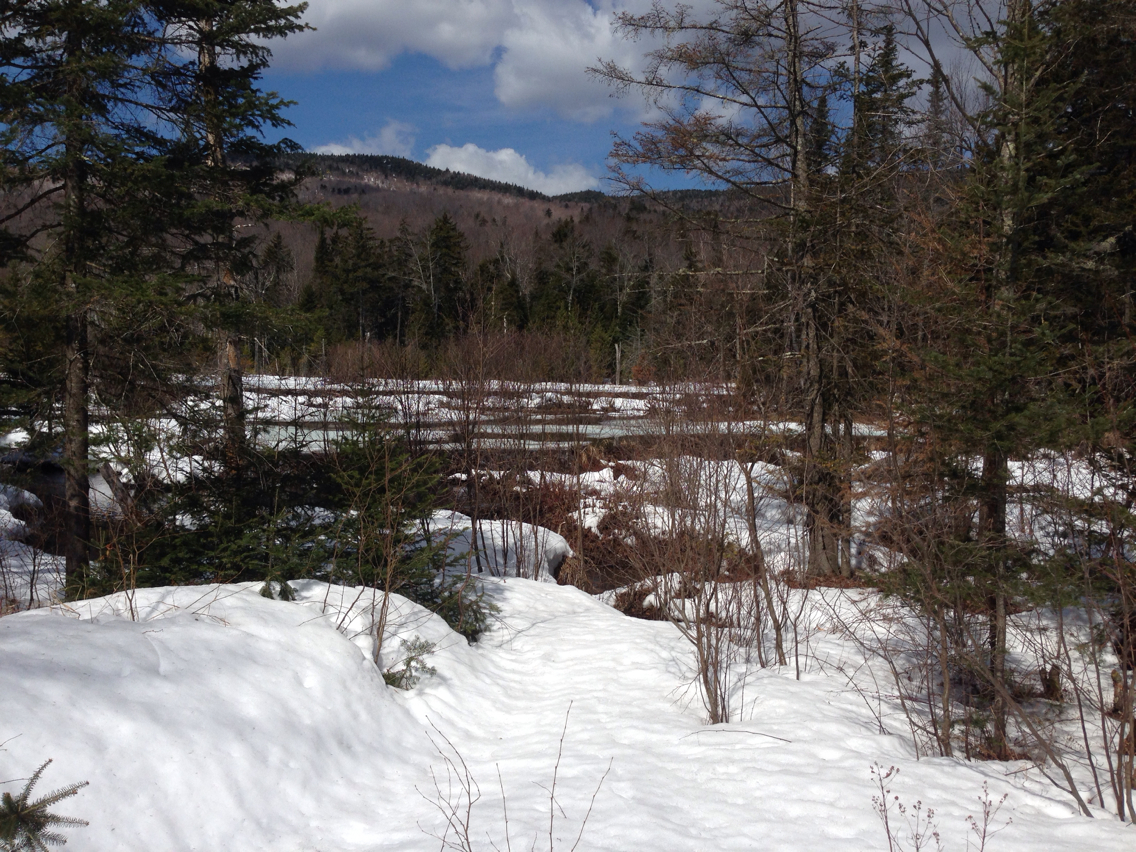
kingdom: Animalia
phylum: Chordata
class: Mammalia
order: Rodentia
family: Castoridae
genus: Castor
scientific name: Castor canadensis
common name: American beaver
